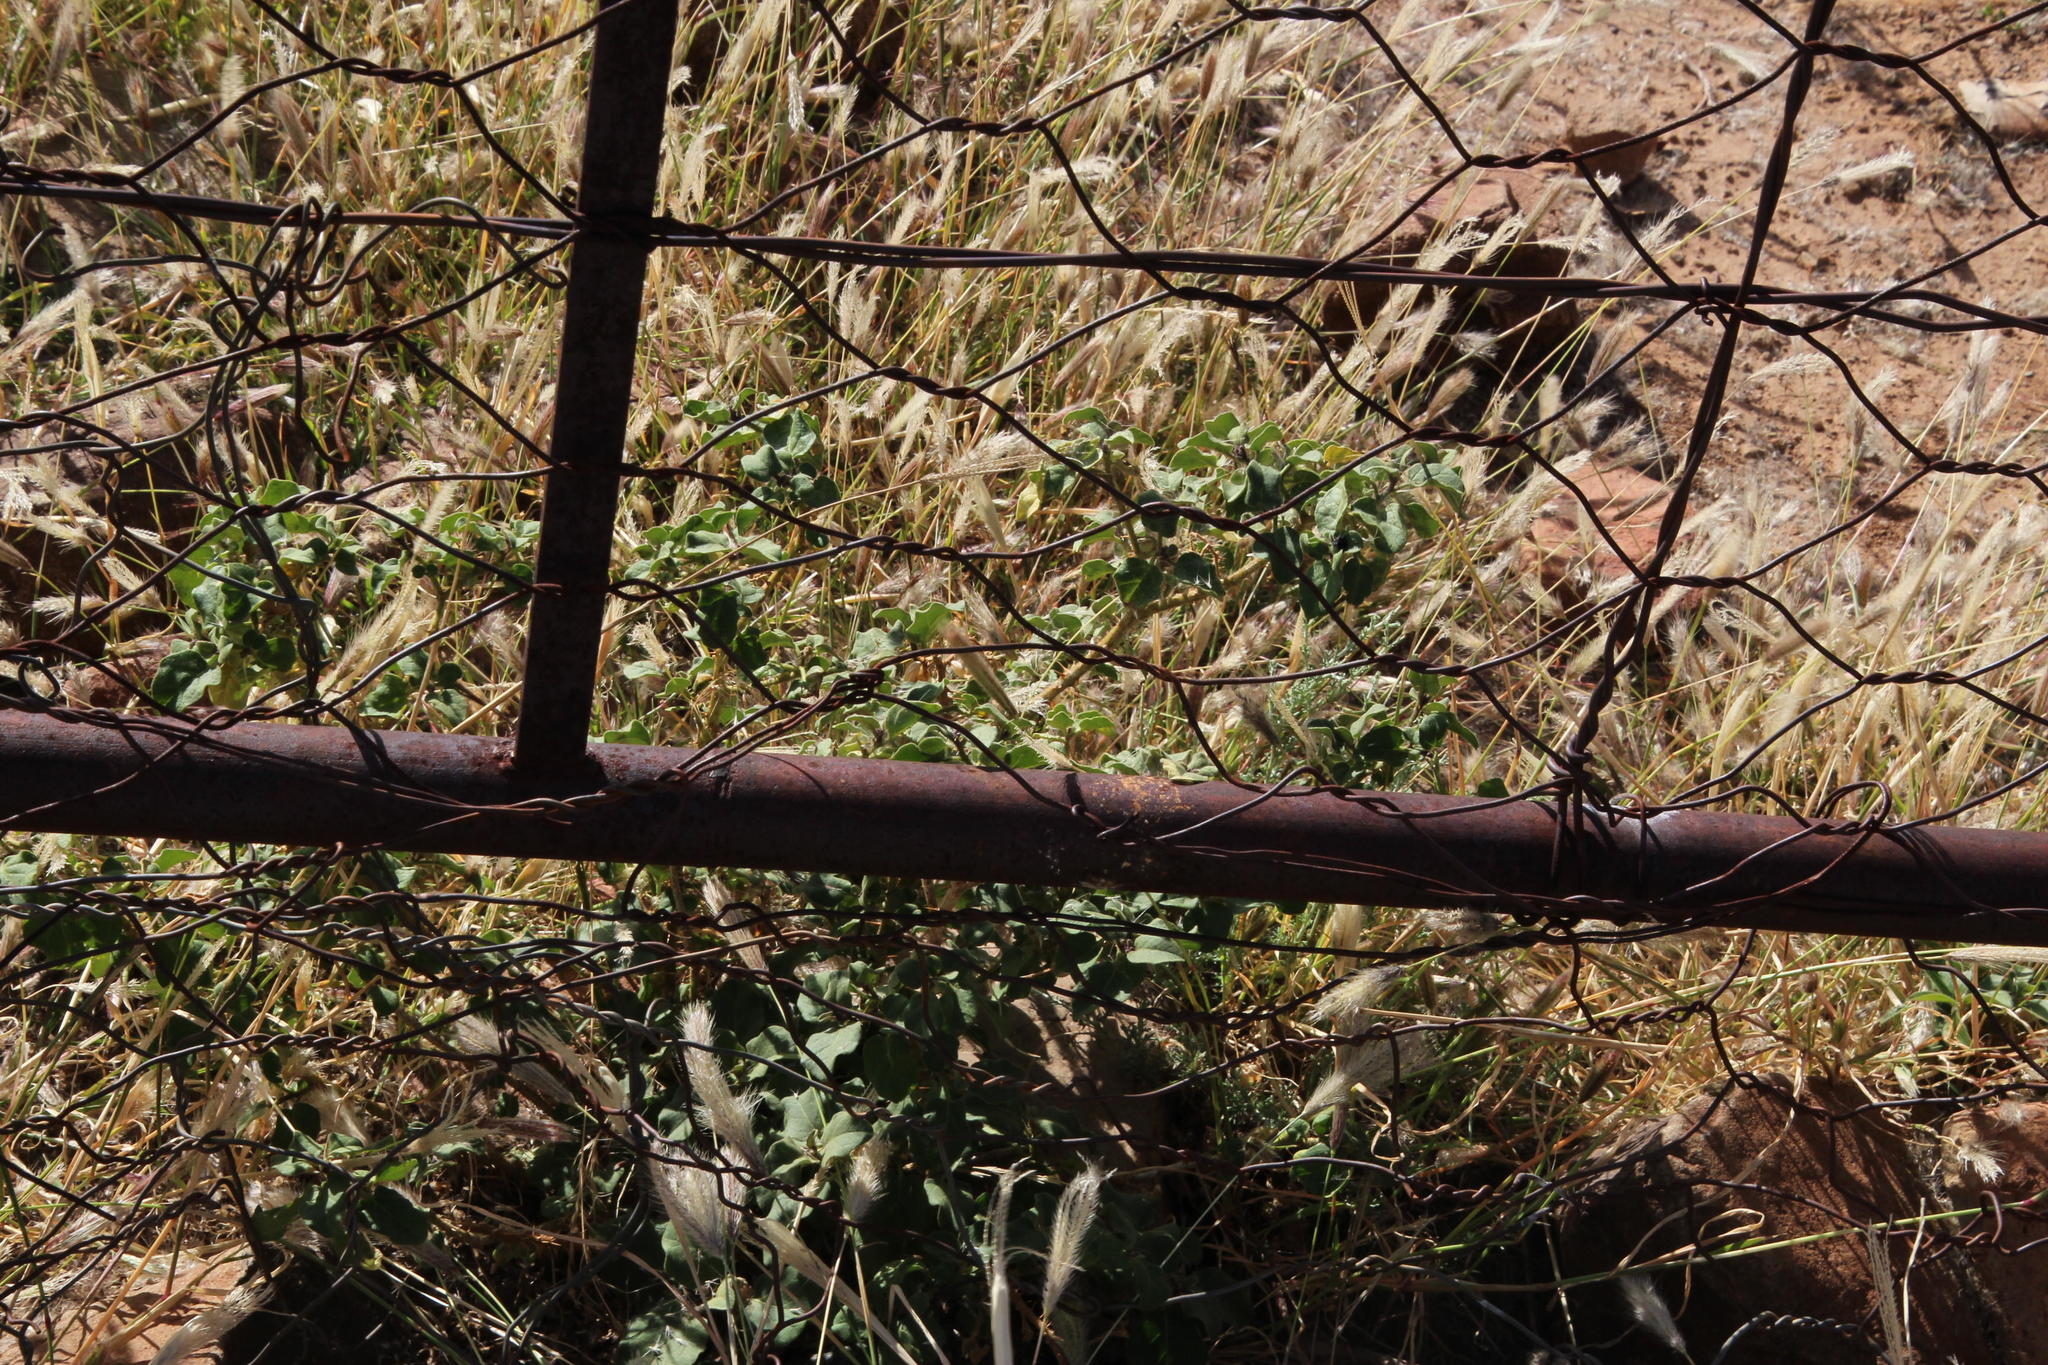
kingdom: Plantae
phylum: Tracheophyta
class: Magnoliopsida
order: Solanales
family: Solanaceae
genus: Solanum
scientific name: Solanum tomentosum
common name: Wild aubergine
